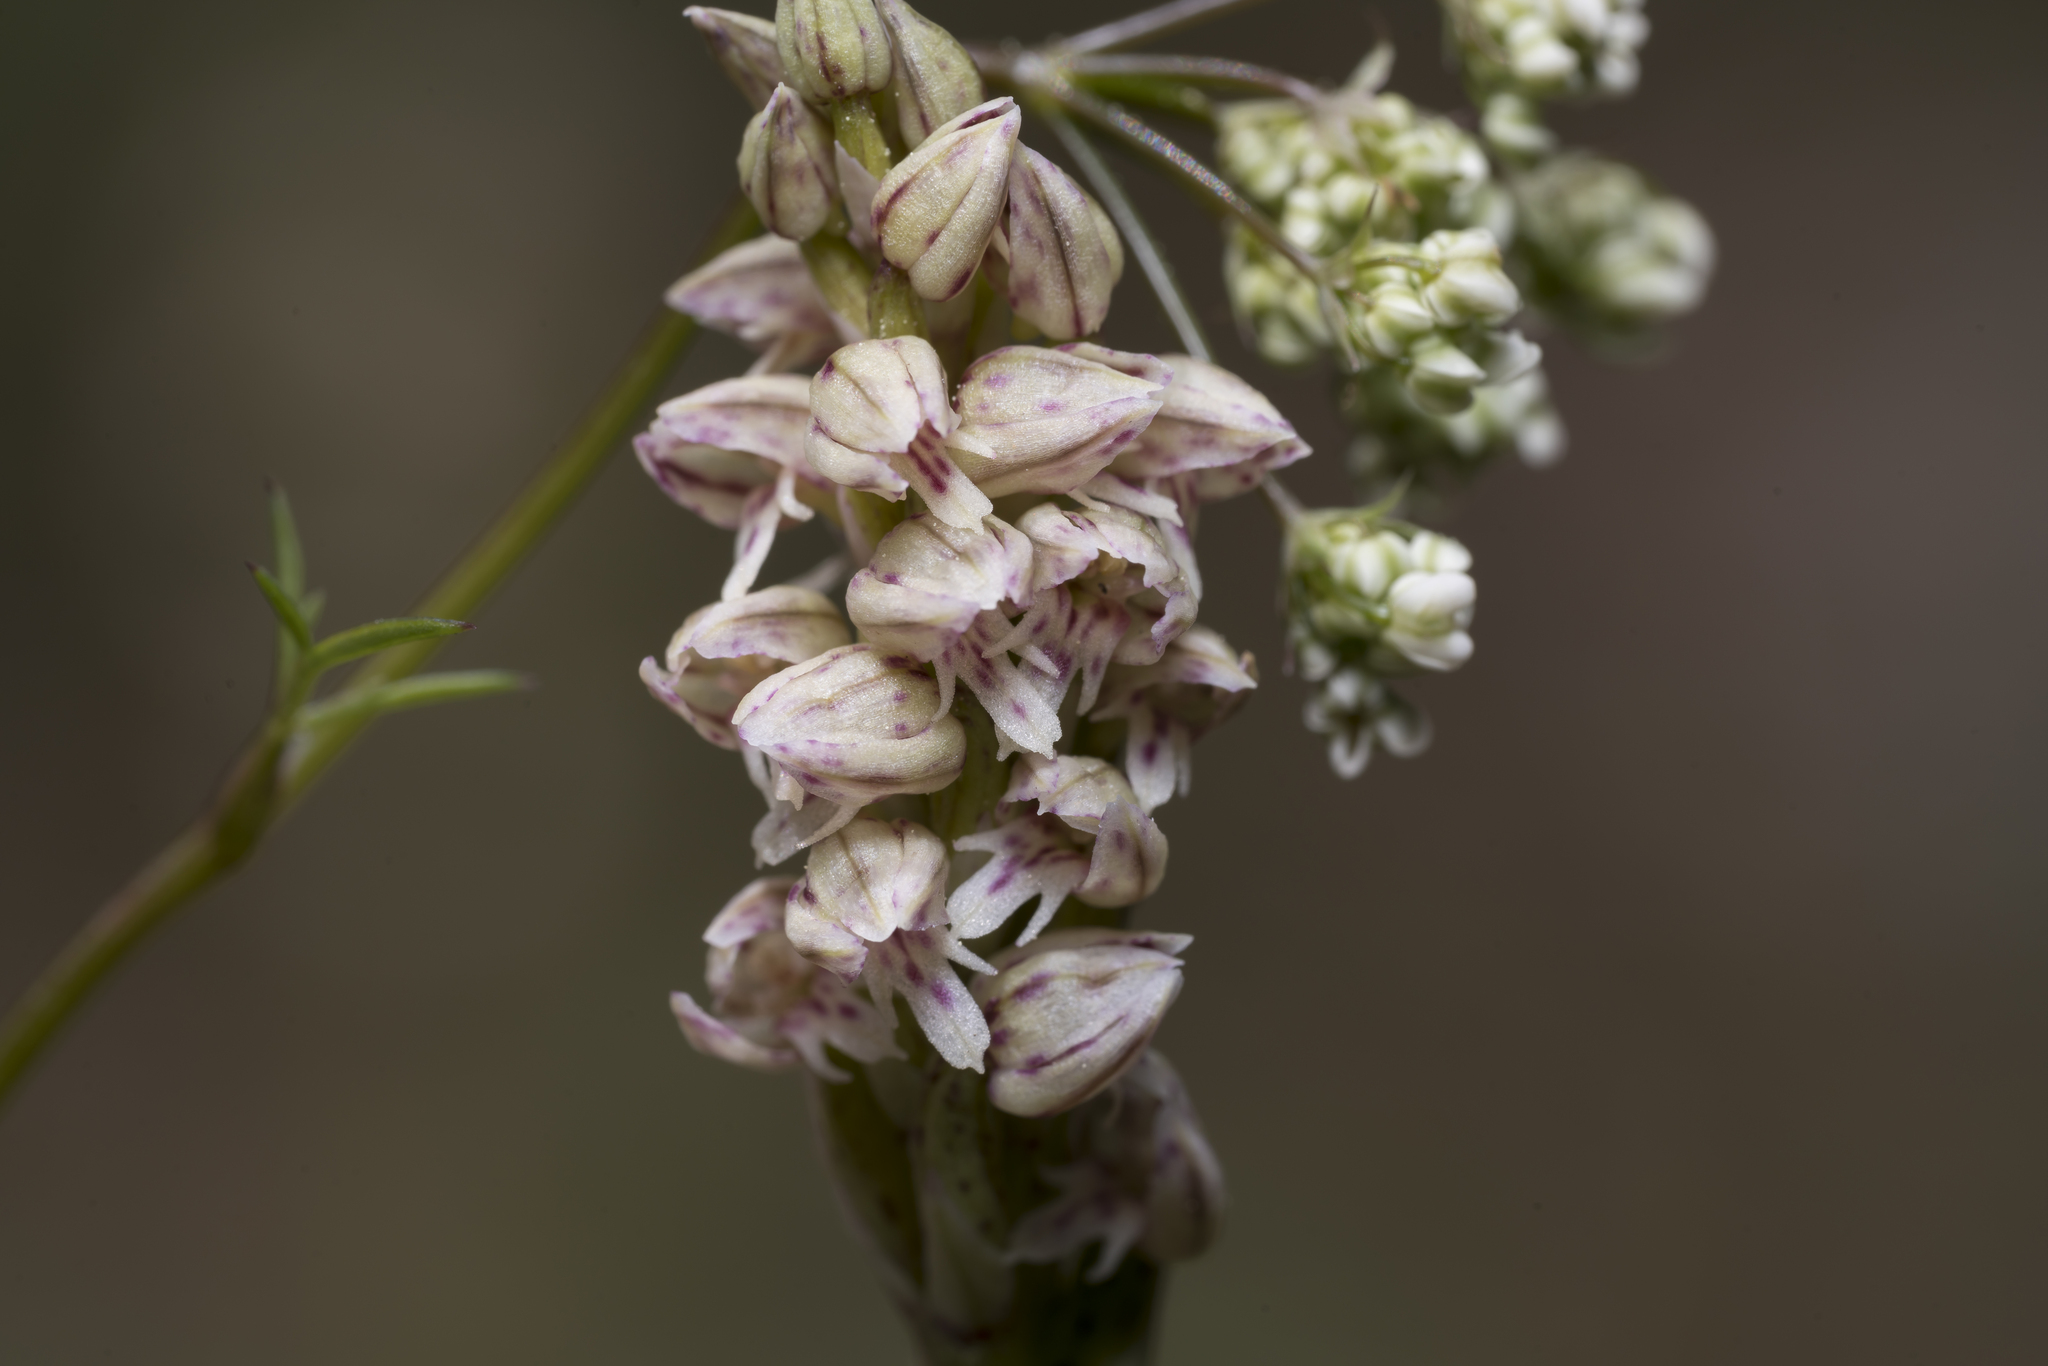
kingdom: Plantae
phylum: Tracheophyta
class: Liliopsida
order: Asparagales
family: Orchidaceae
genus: Neotinea
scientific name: Neotinea maculata
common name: Dense-flowered orchid
